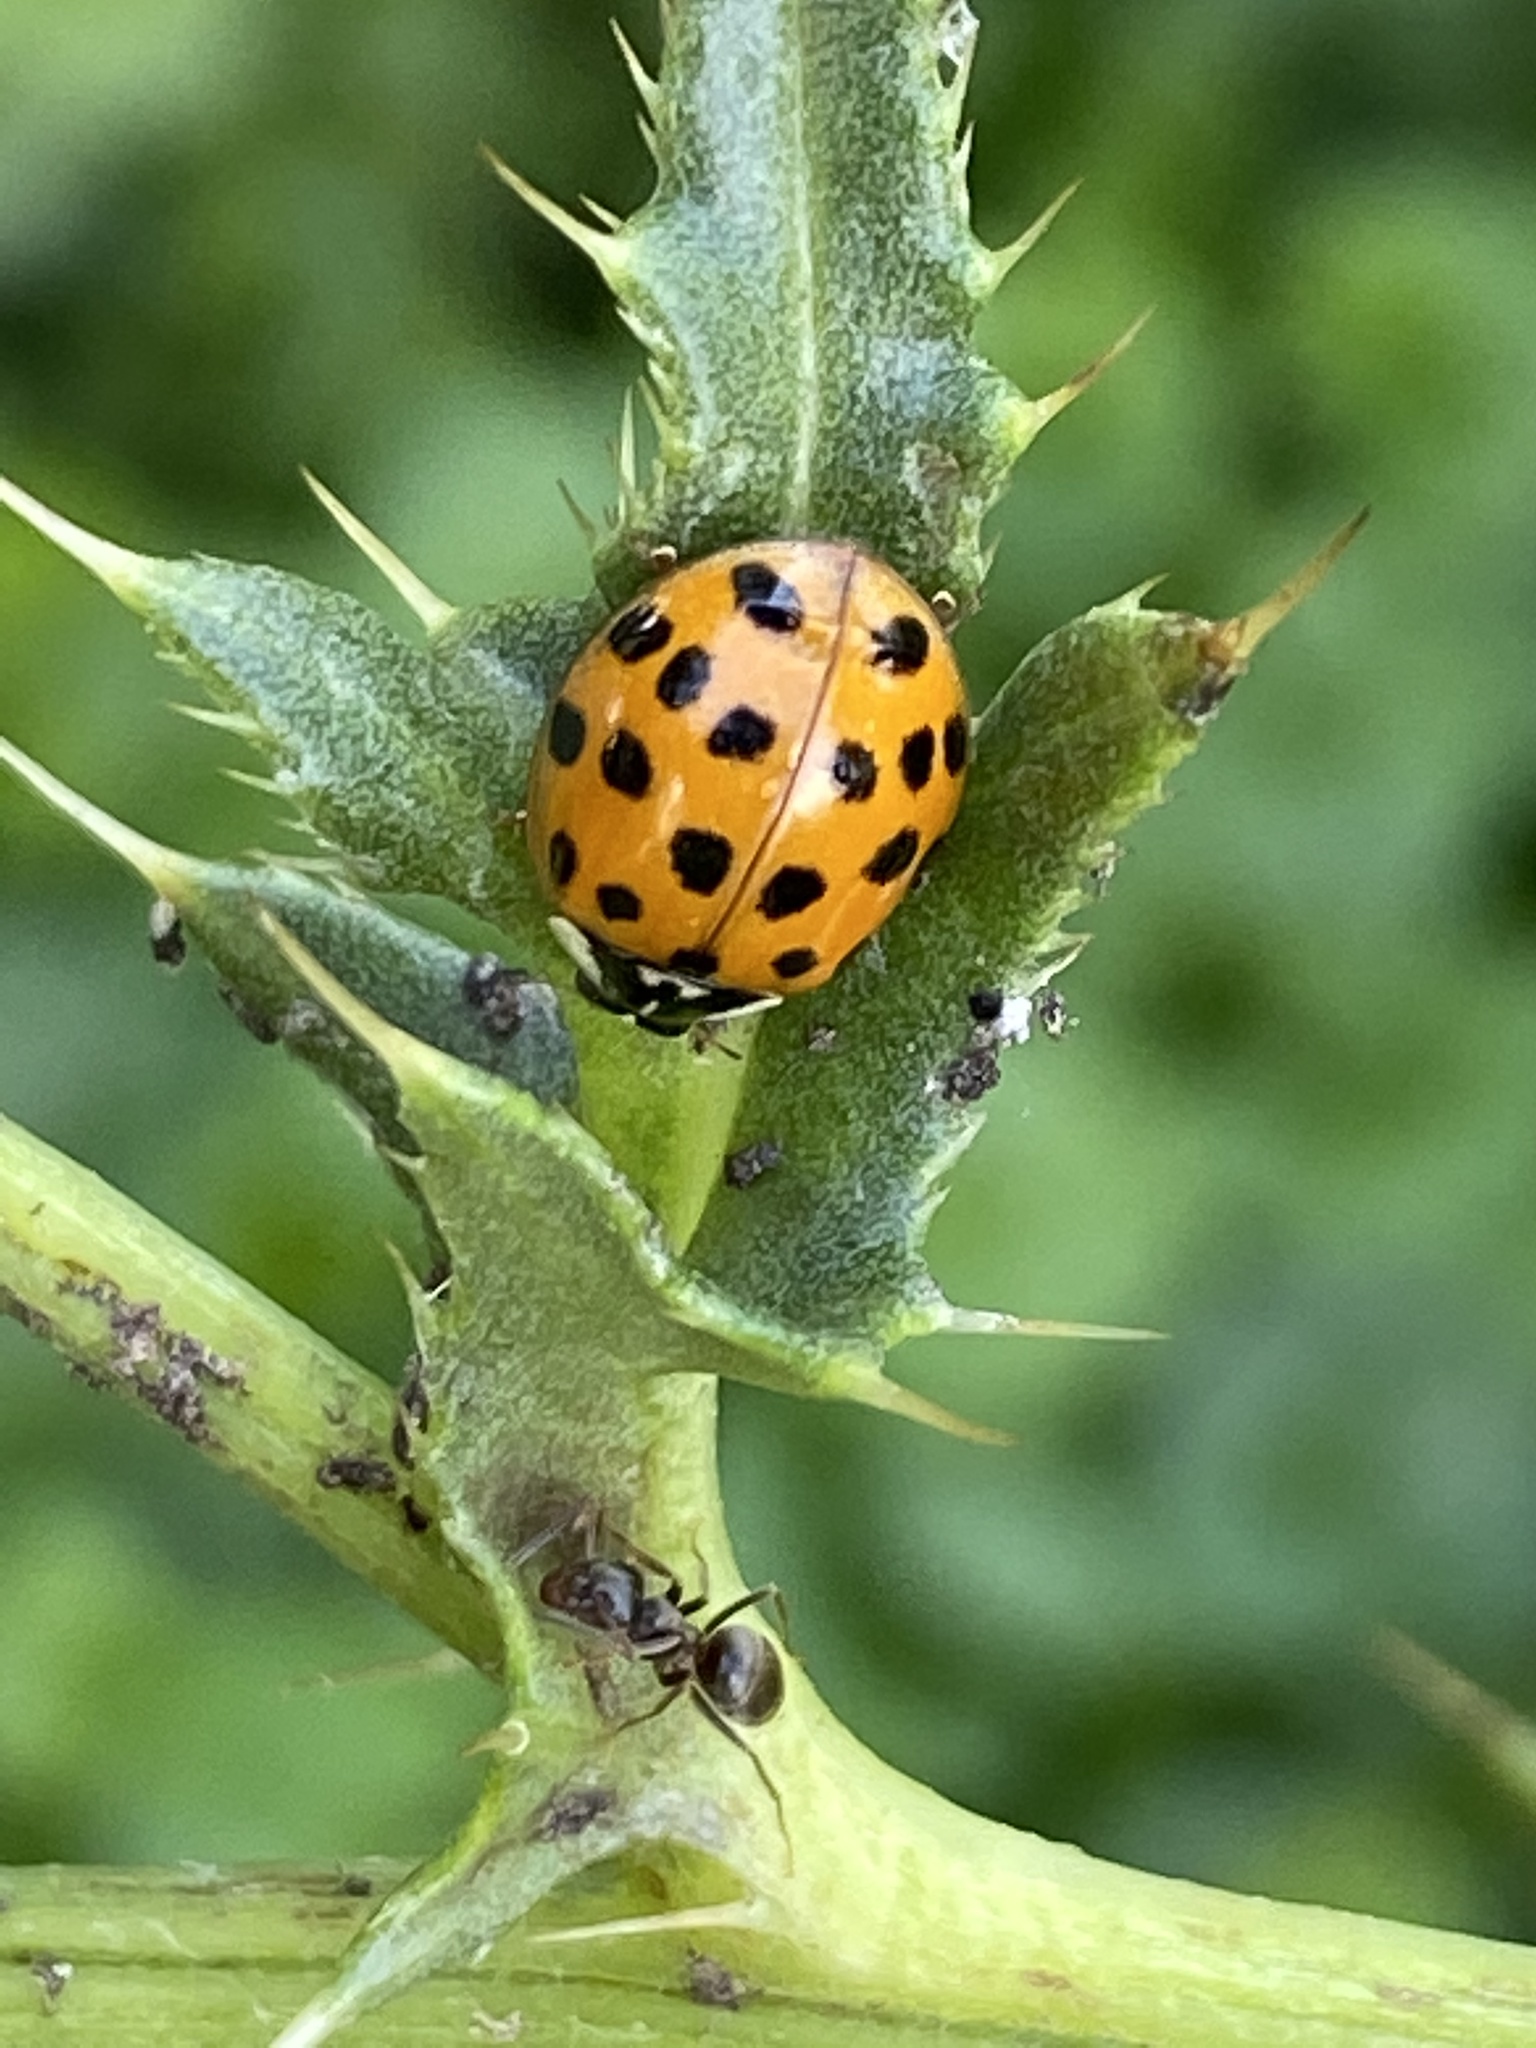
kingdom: Animalia
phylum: Arthropoda
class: Insecta
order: Coleoptera
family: Coccinellidae
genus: Harmonia
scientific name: Harmonia axyridis
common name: Harlequin ladybird
